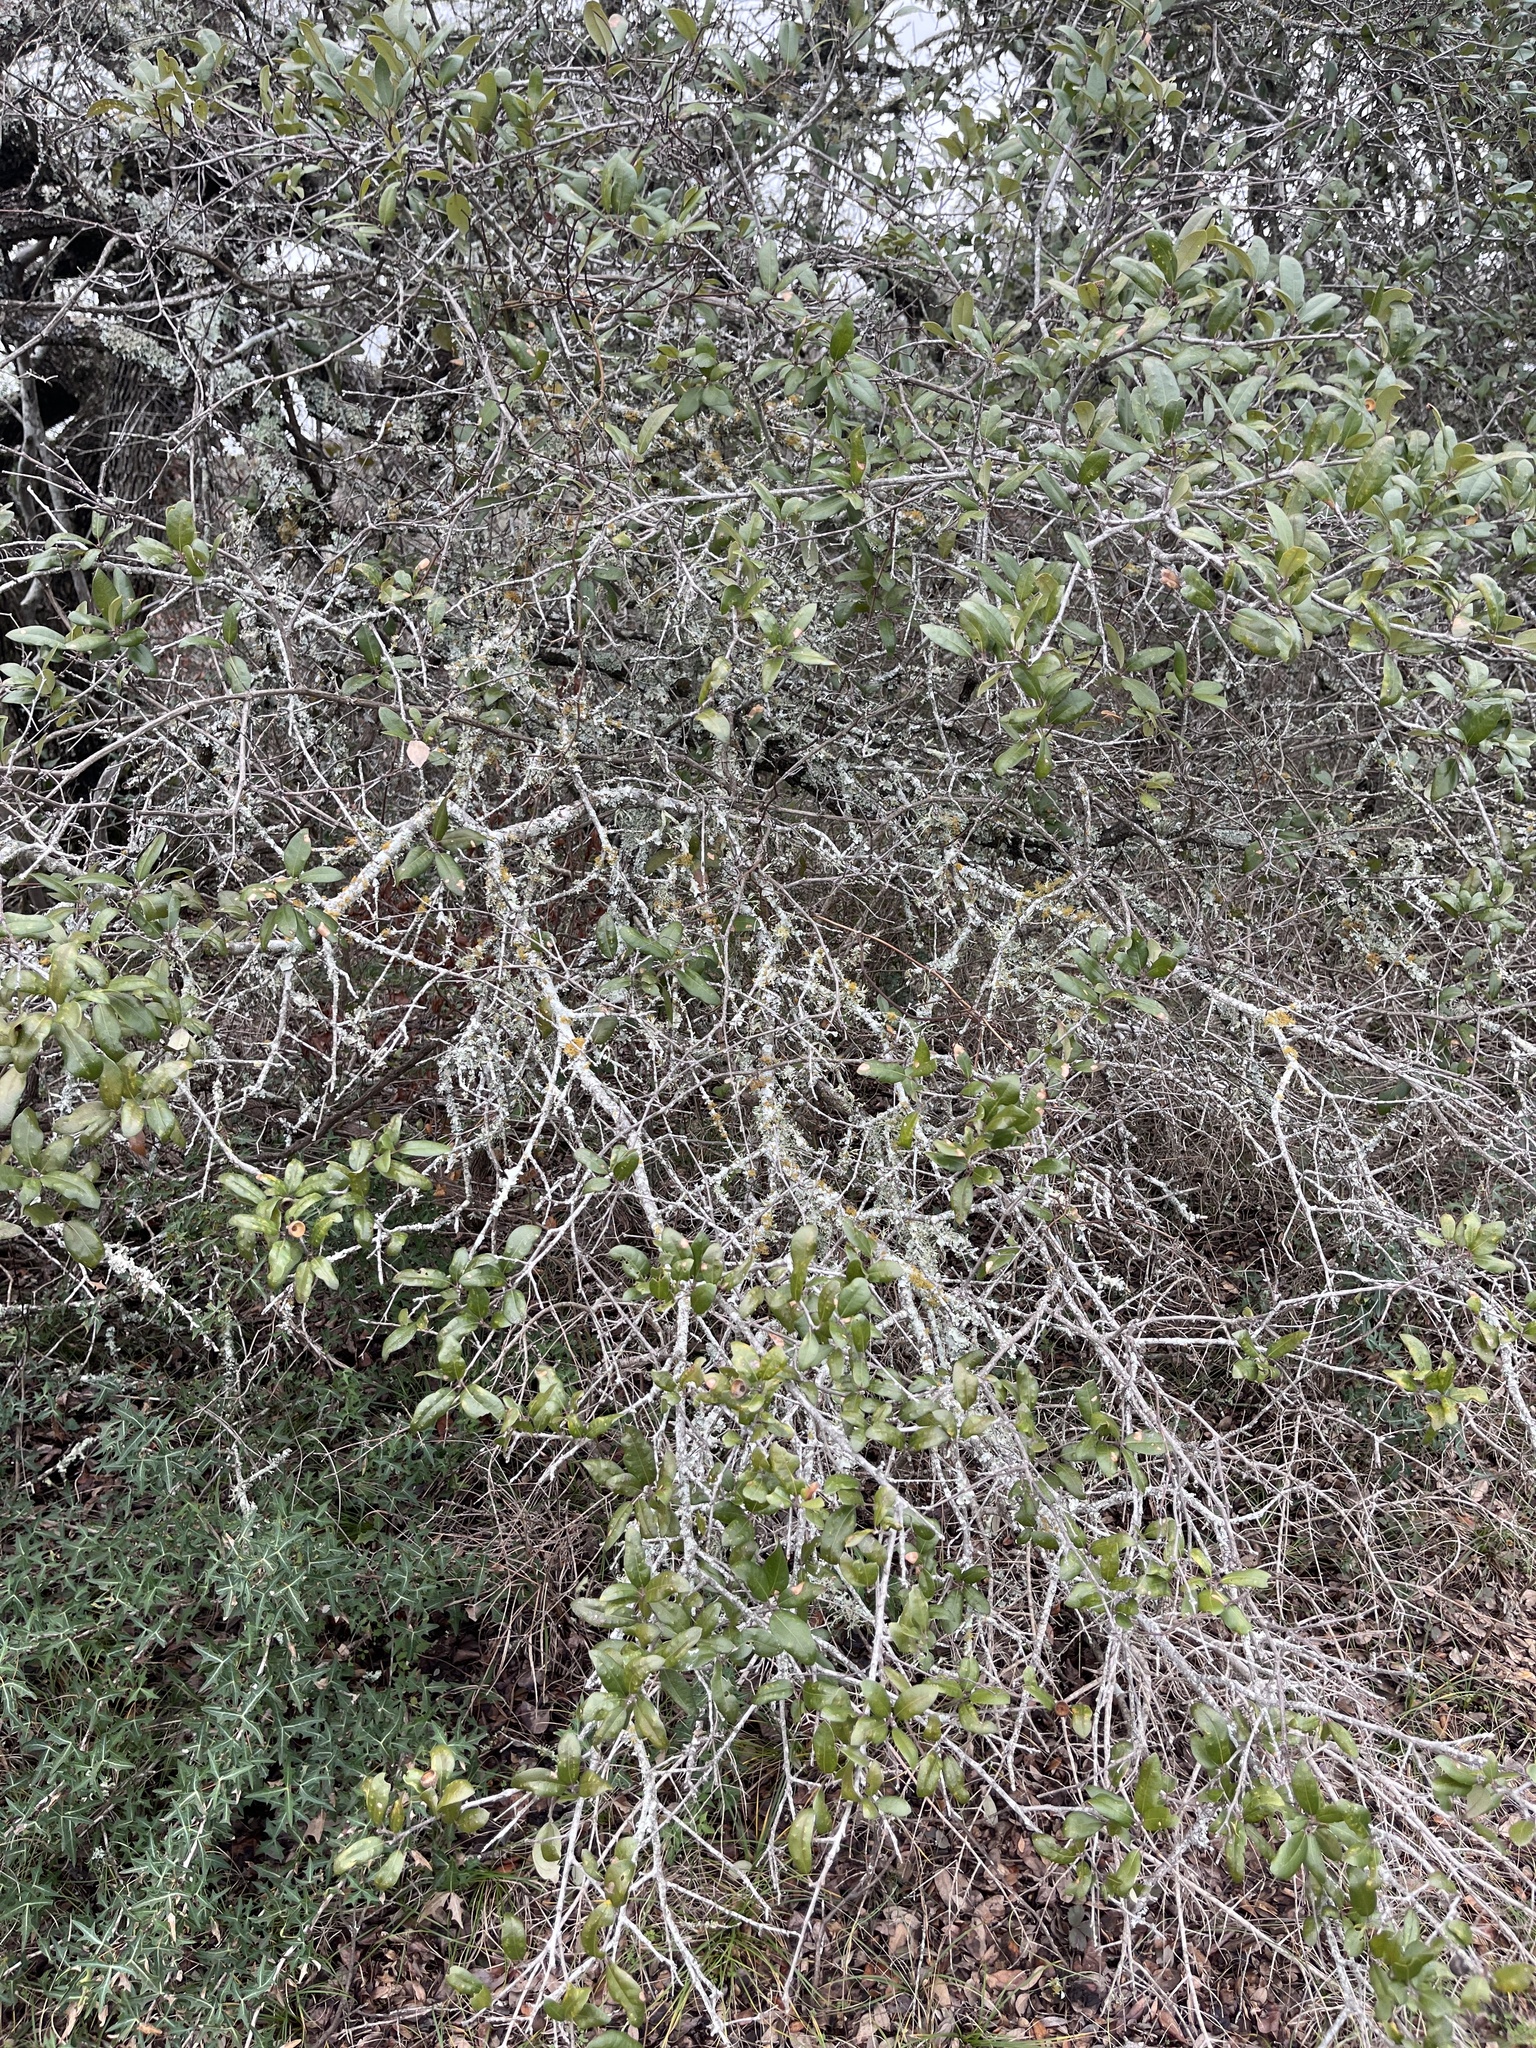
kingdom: Plantae
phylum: Tracheophyta
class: Magnoliopsida
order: Fagales
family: Fagaceae
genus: Quercus
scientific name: Quercus fusiformis
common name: Texas live oak
